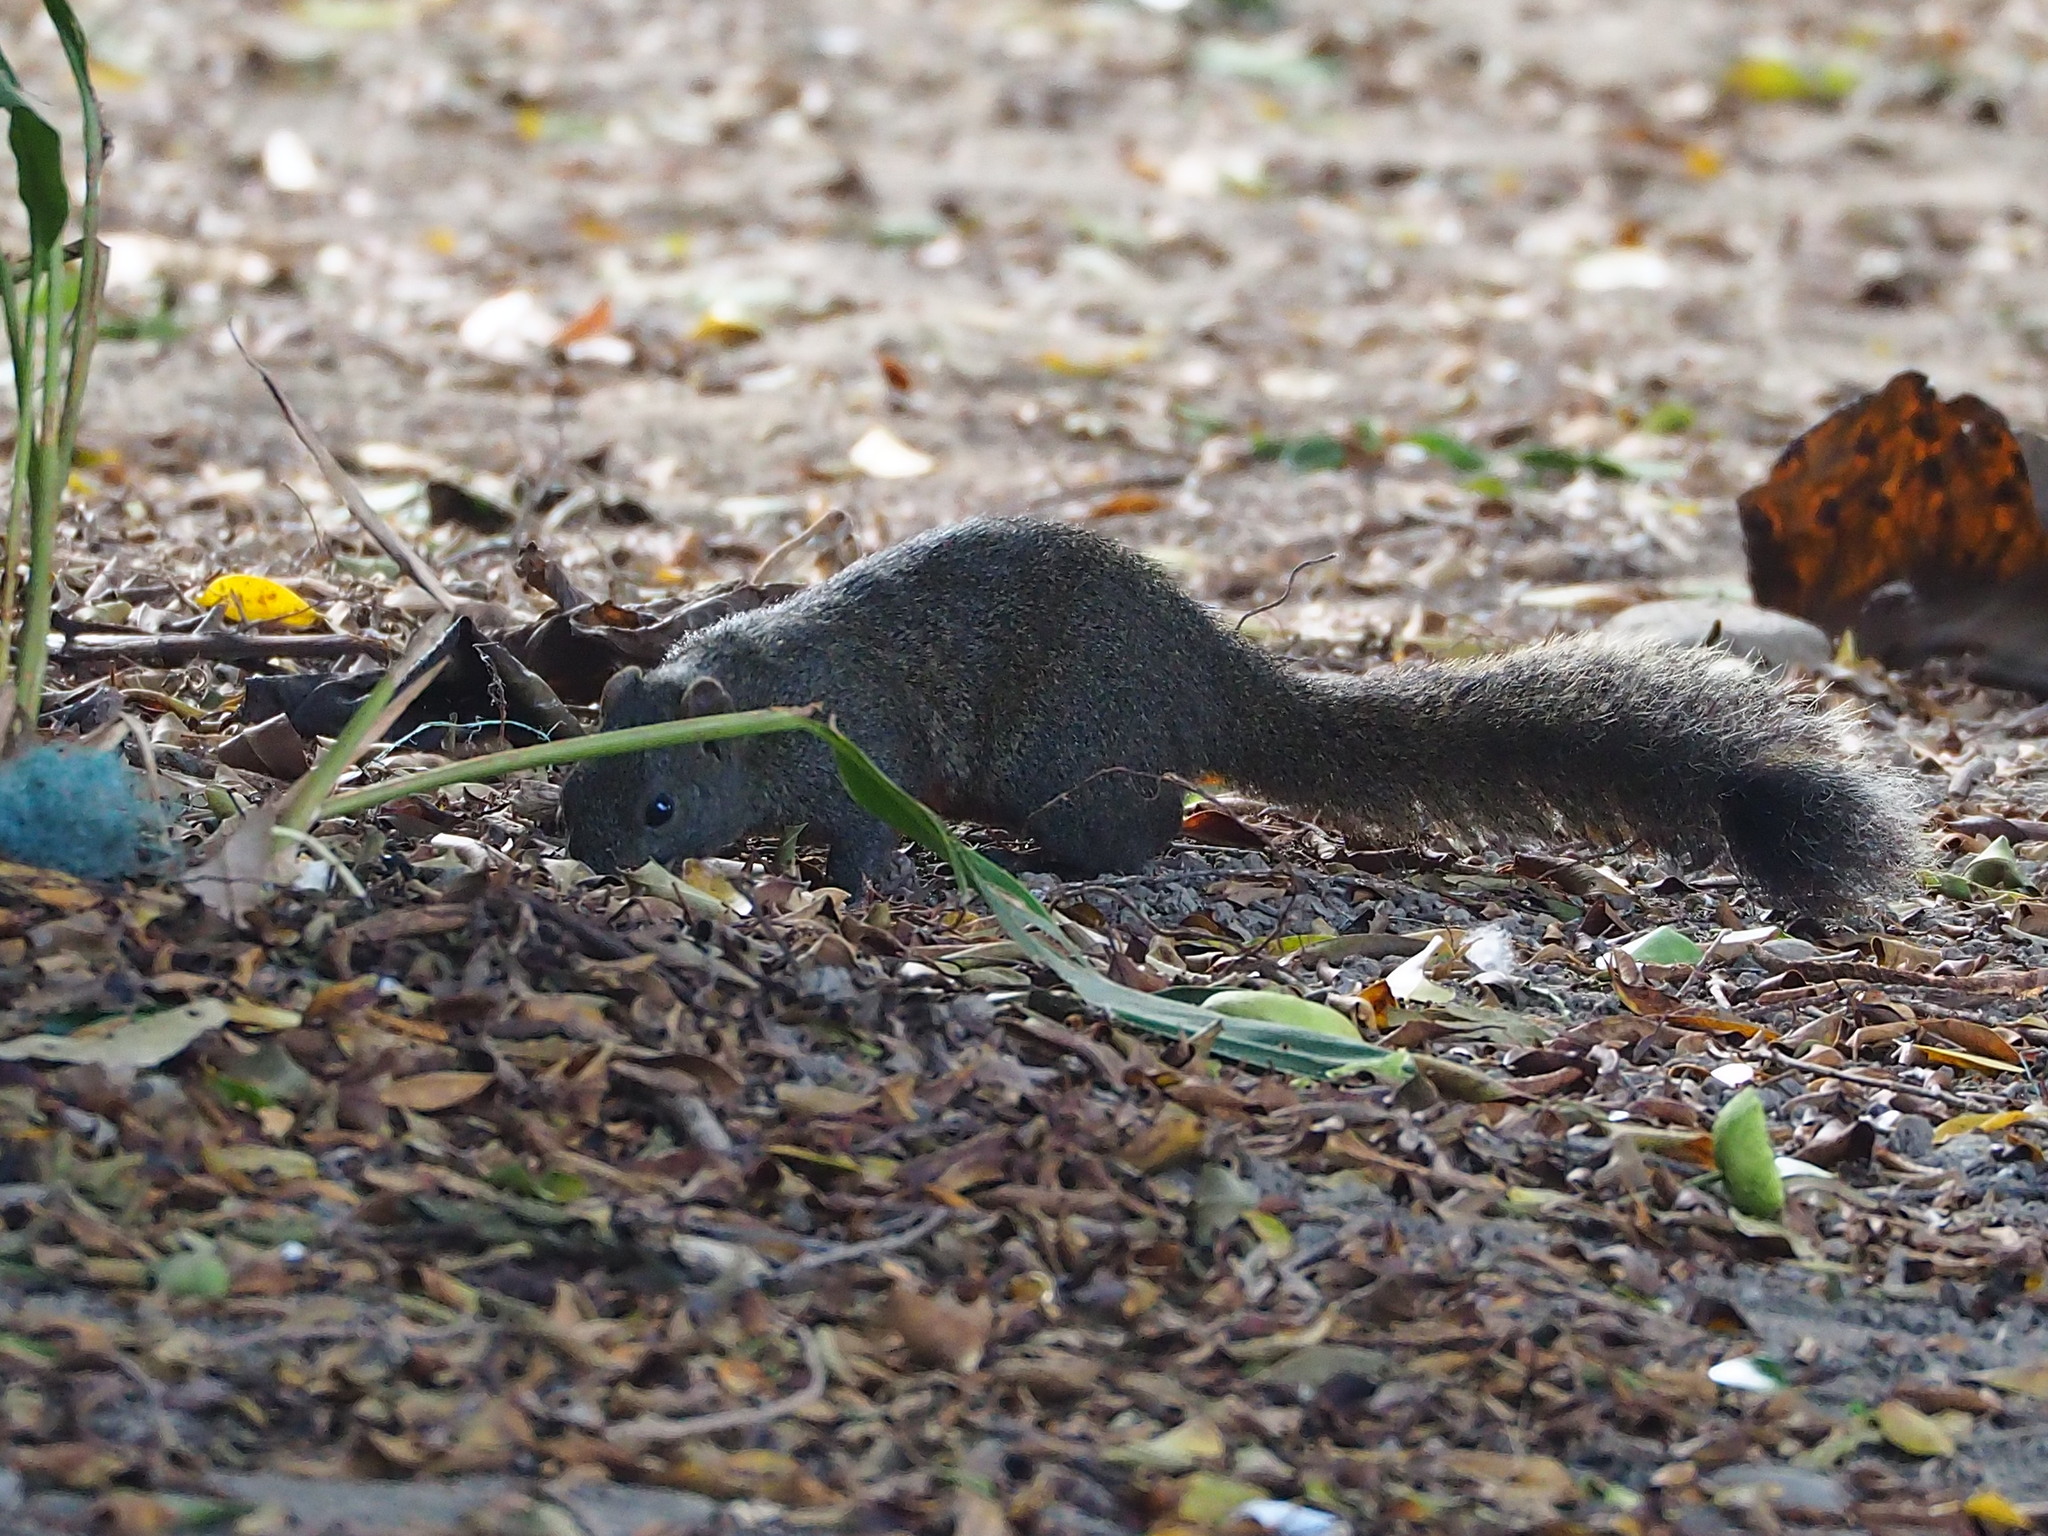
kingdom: Animalia
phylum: Chordata
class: Mammalia
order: Rodentia
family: Sciuridae
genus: Callosciurus
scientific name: Callosciurus erythraeus
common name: Pallas's squirrel
